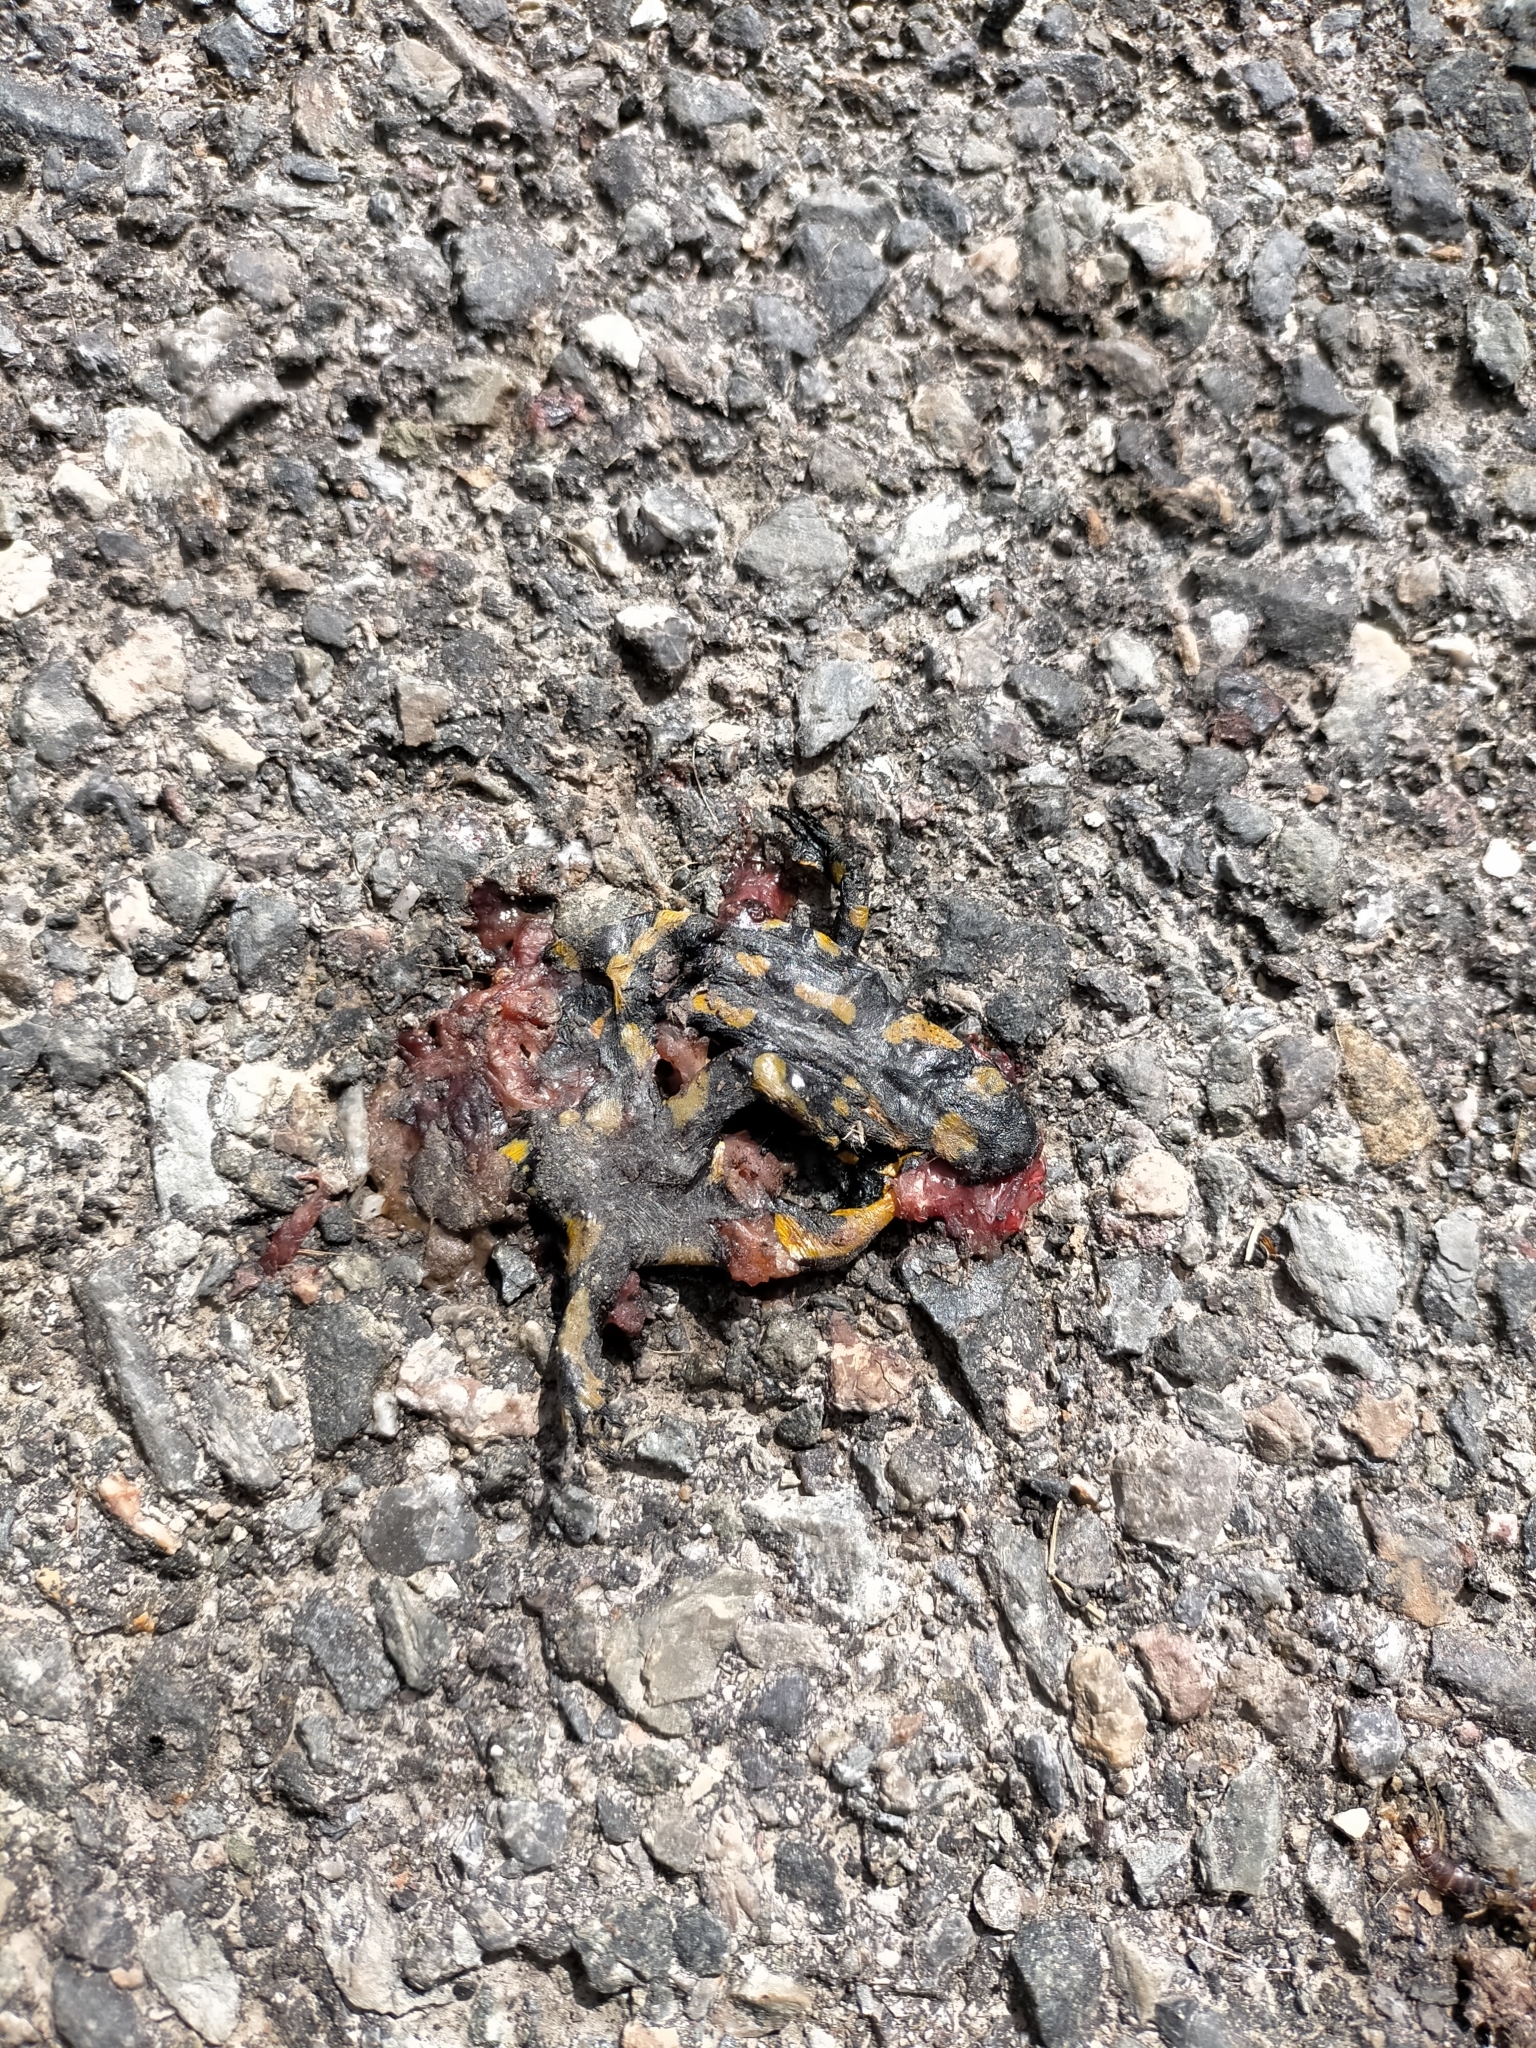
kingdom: Animalia
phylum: Chordata
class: Amphibia
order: Caudata
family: Salamandridae
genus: Salamandra
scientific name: Salamandra salamandra
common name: Fire salamander
